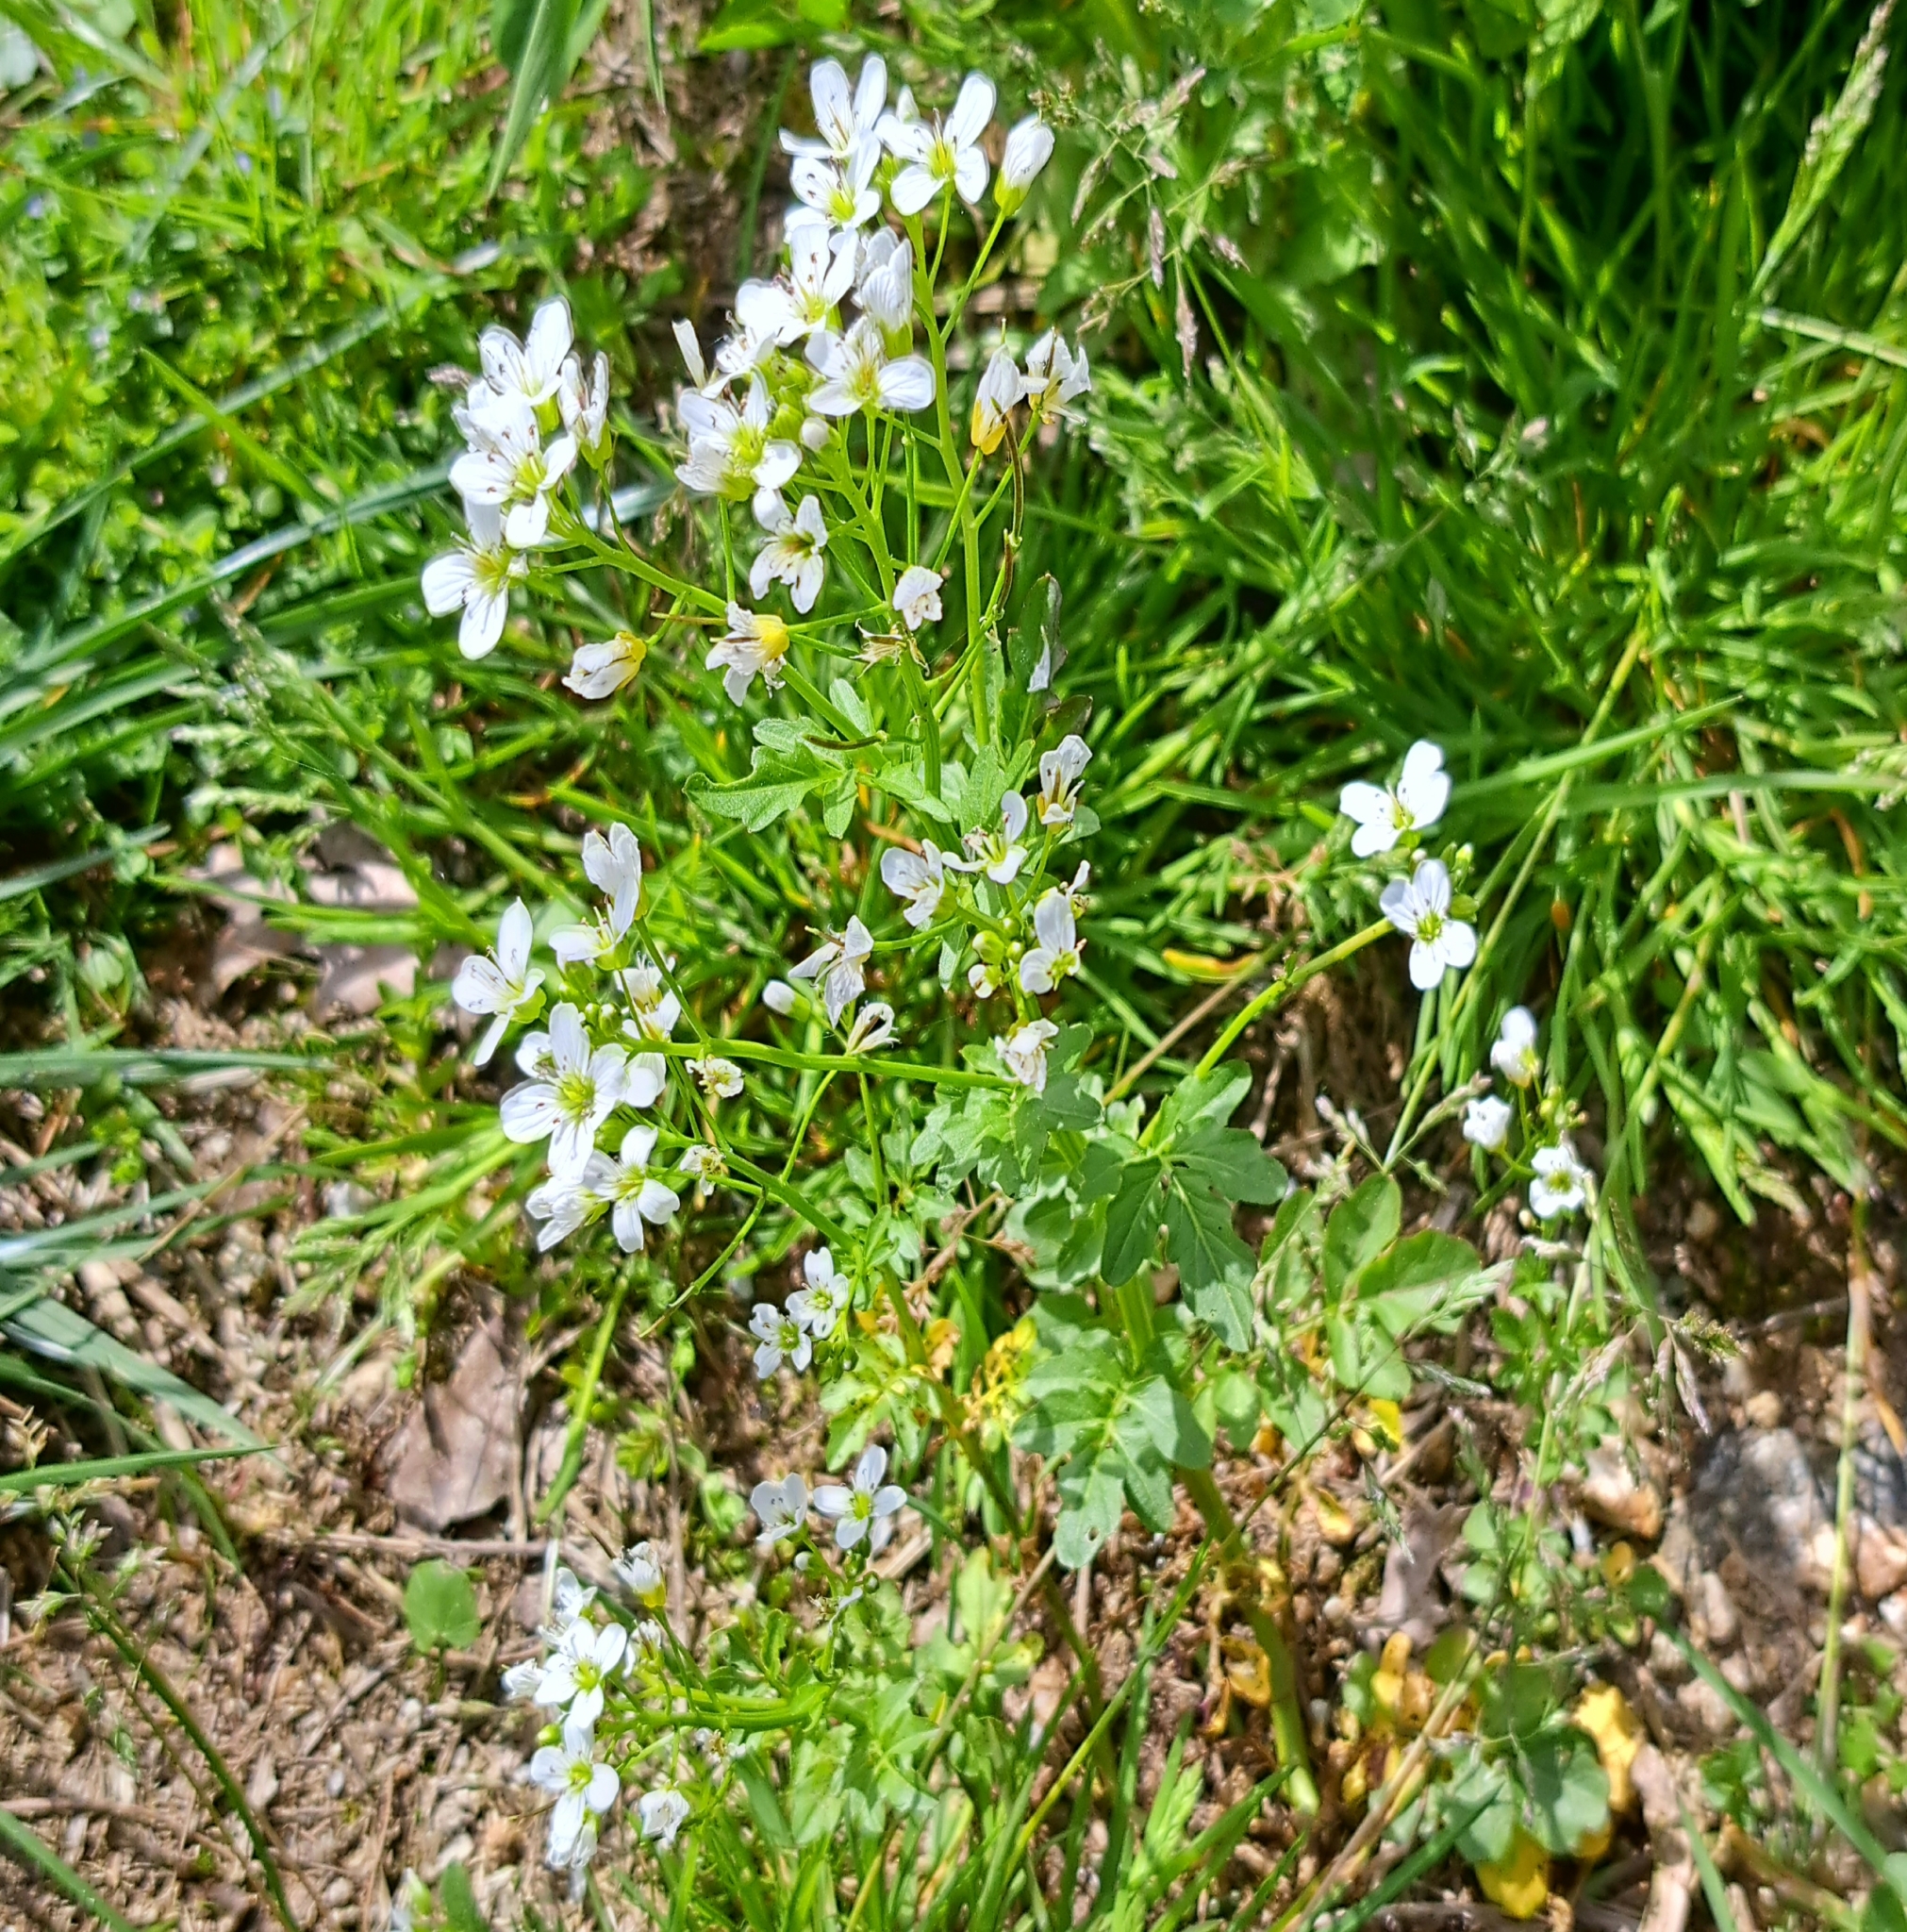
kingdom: Plantae
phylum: Tracheophyta
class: Magnoliopsida
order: Brassicales
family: Brassicaceae
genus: Cardamine
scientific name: Cardamine amara
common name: Large bitter-cress
